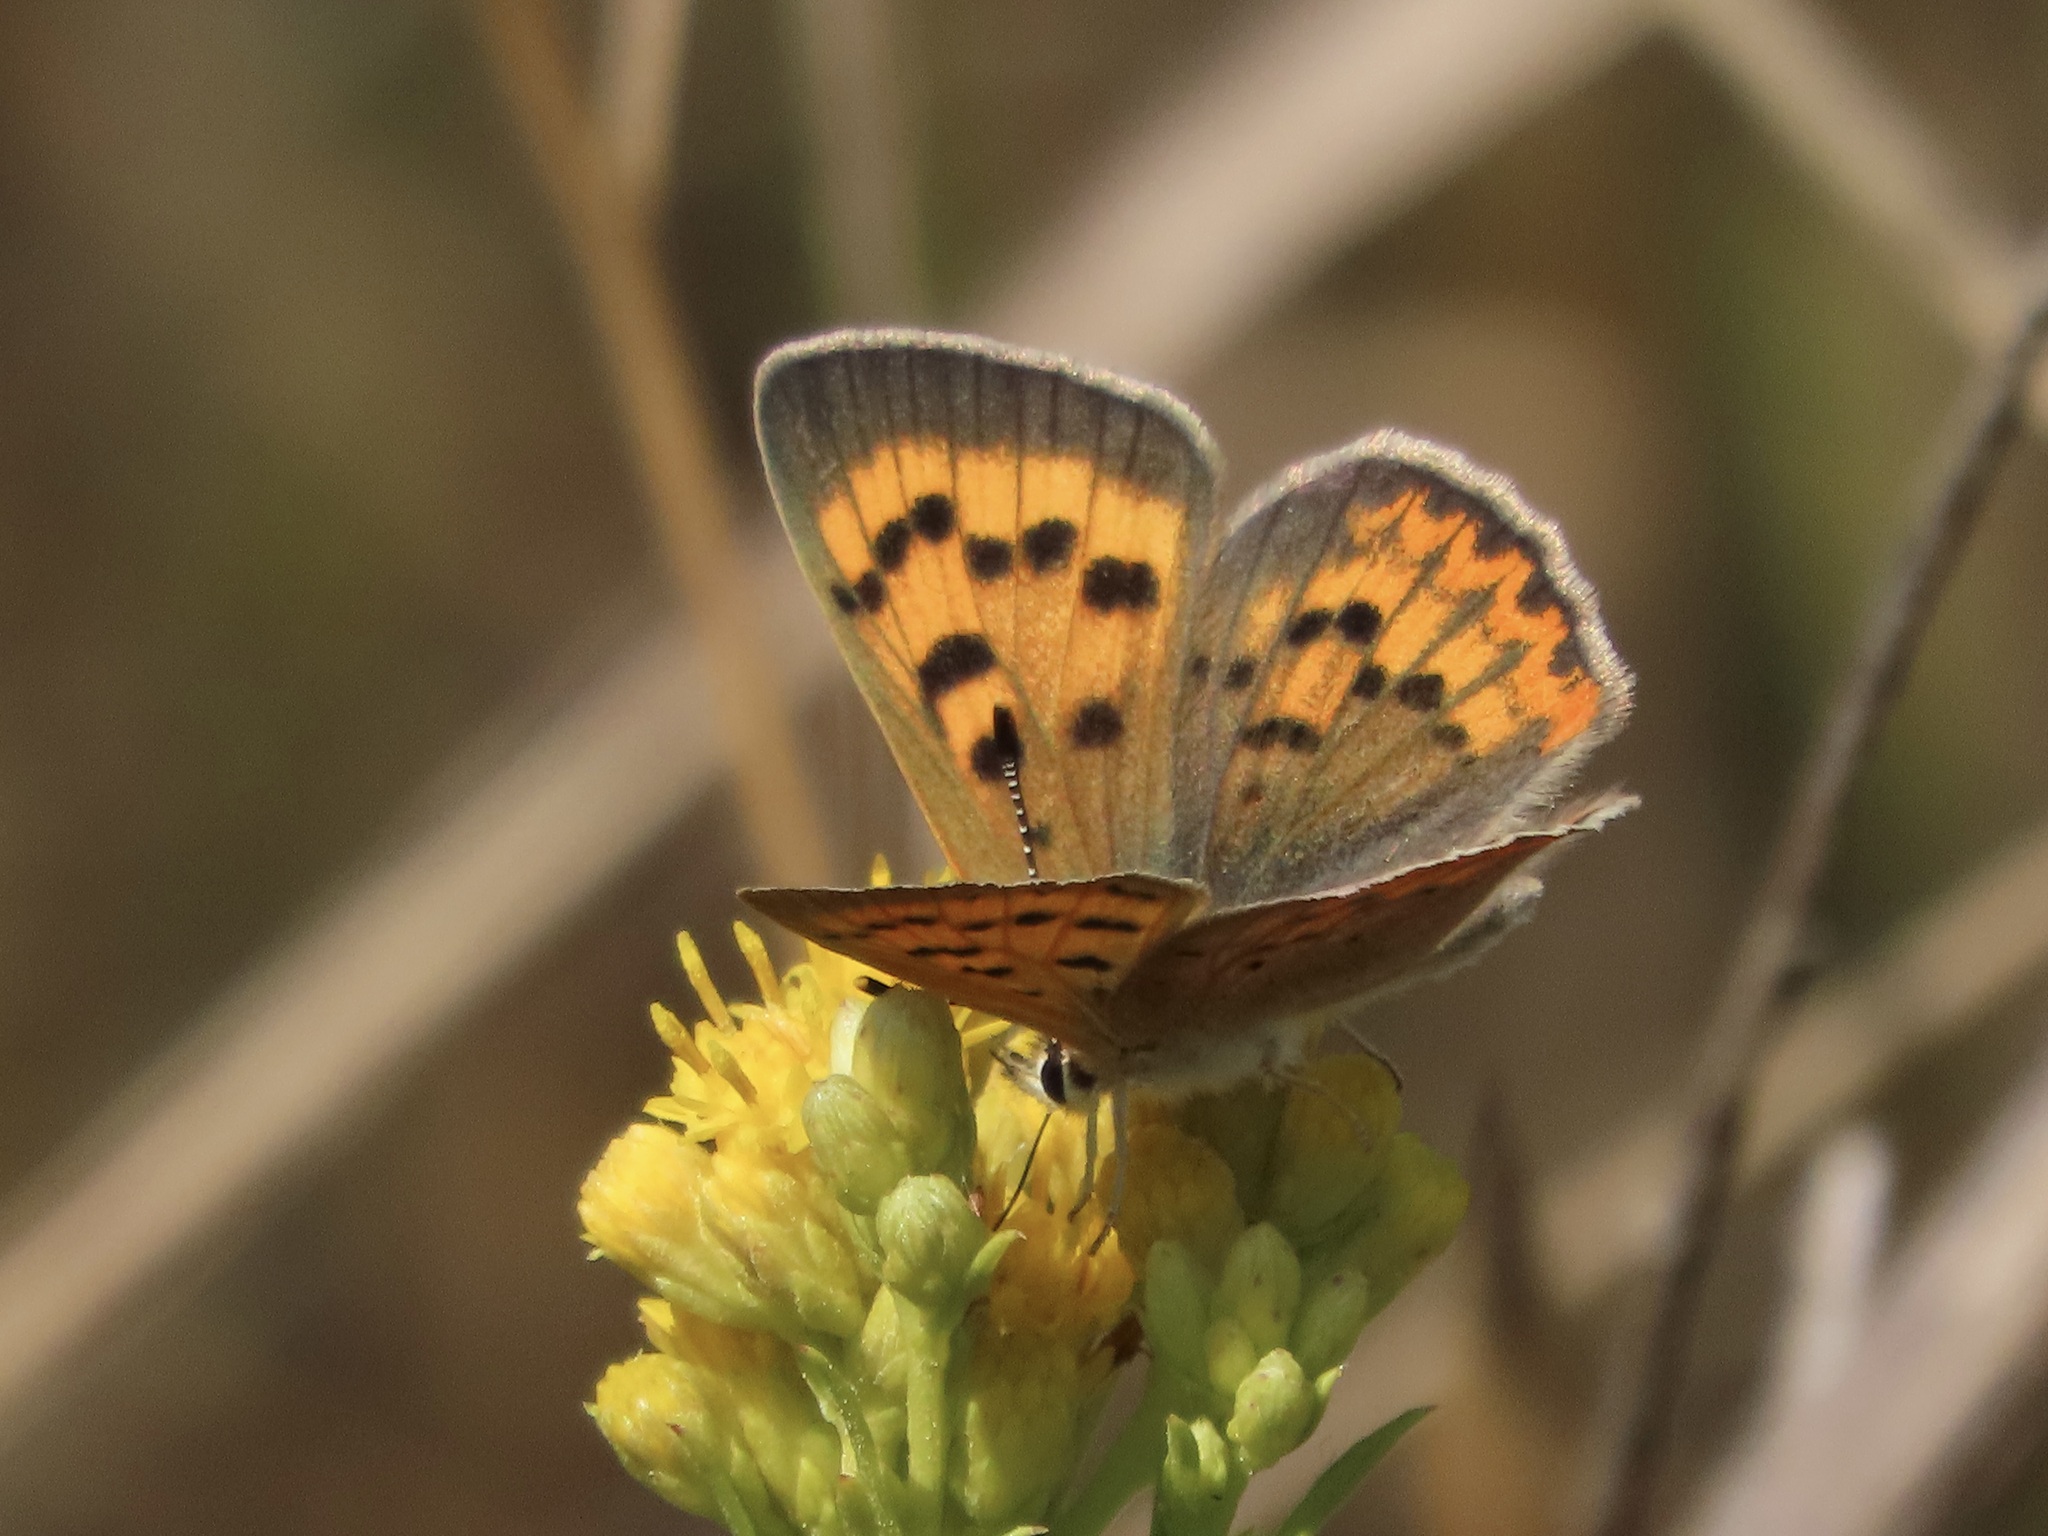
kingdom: Animalia
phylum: Arthropoda
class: Insecta
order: Lepidoptera
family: Lycaenidae
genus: Tharsalea
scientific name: Tharsalea helloides
